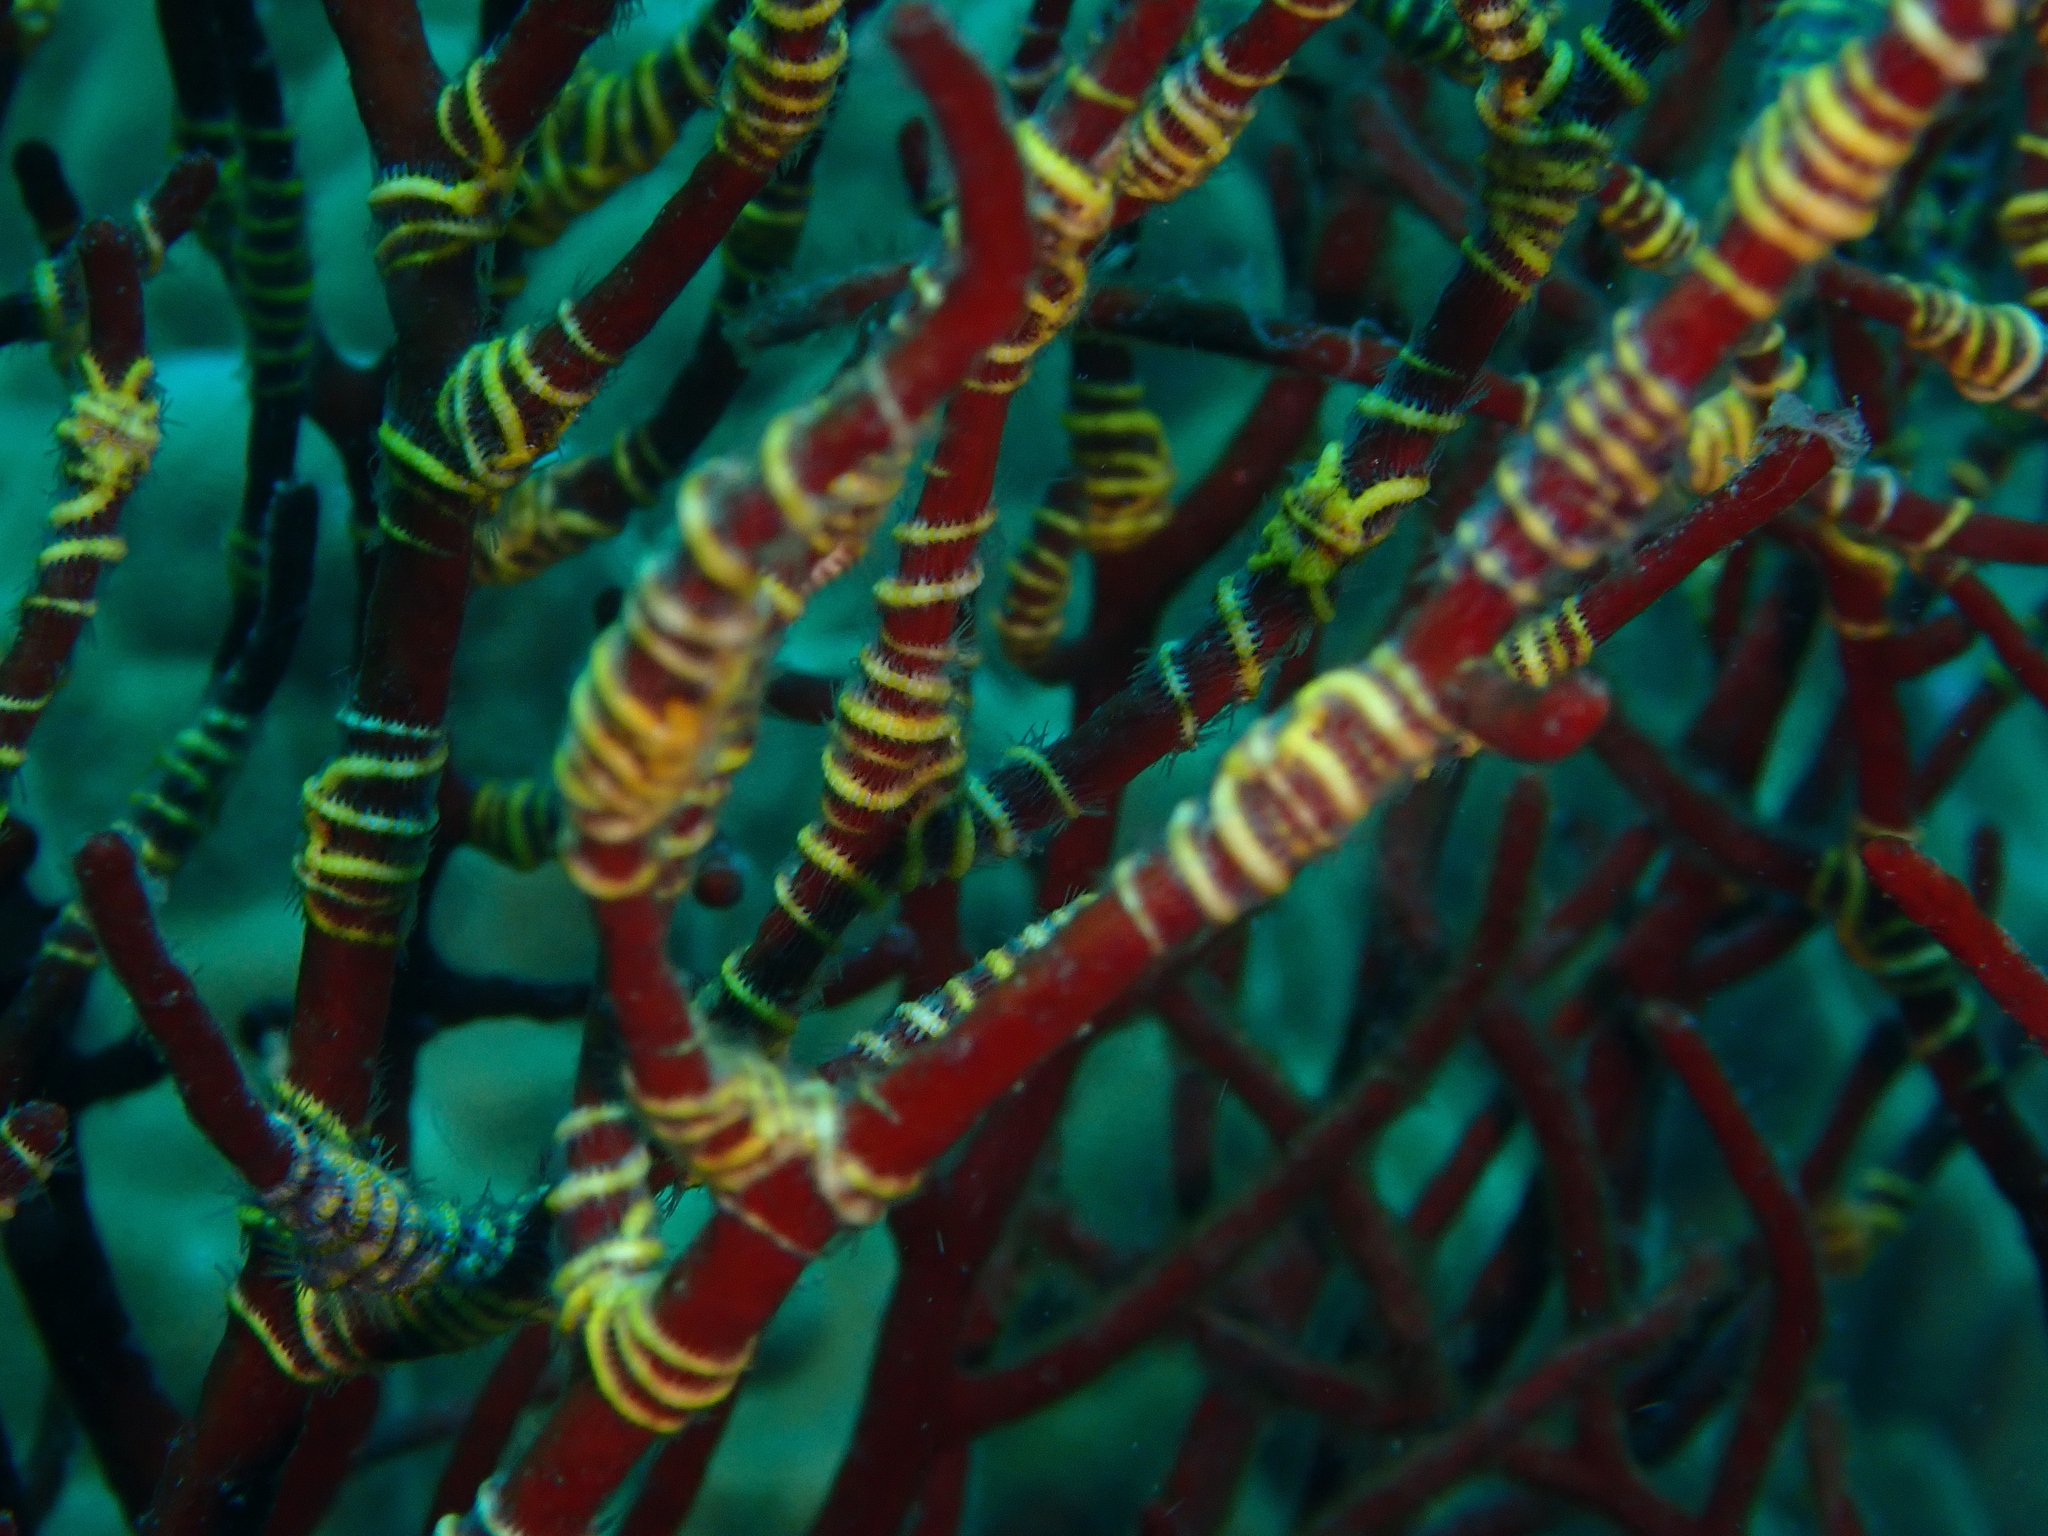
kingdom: Animalia
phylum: Echinodermata
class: Ophiuroidea
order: Amphilepidida
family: Ophiotrichidae
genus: Ophiothela
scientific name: Ophiothela mirabilis
